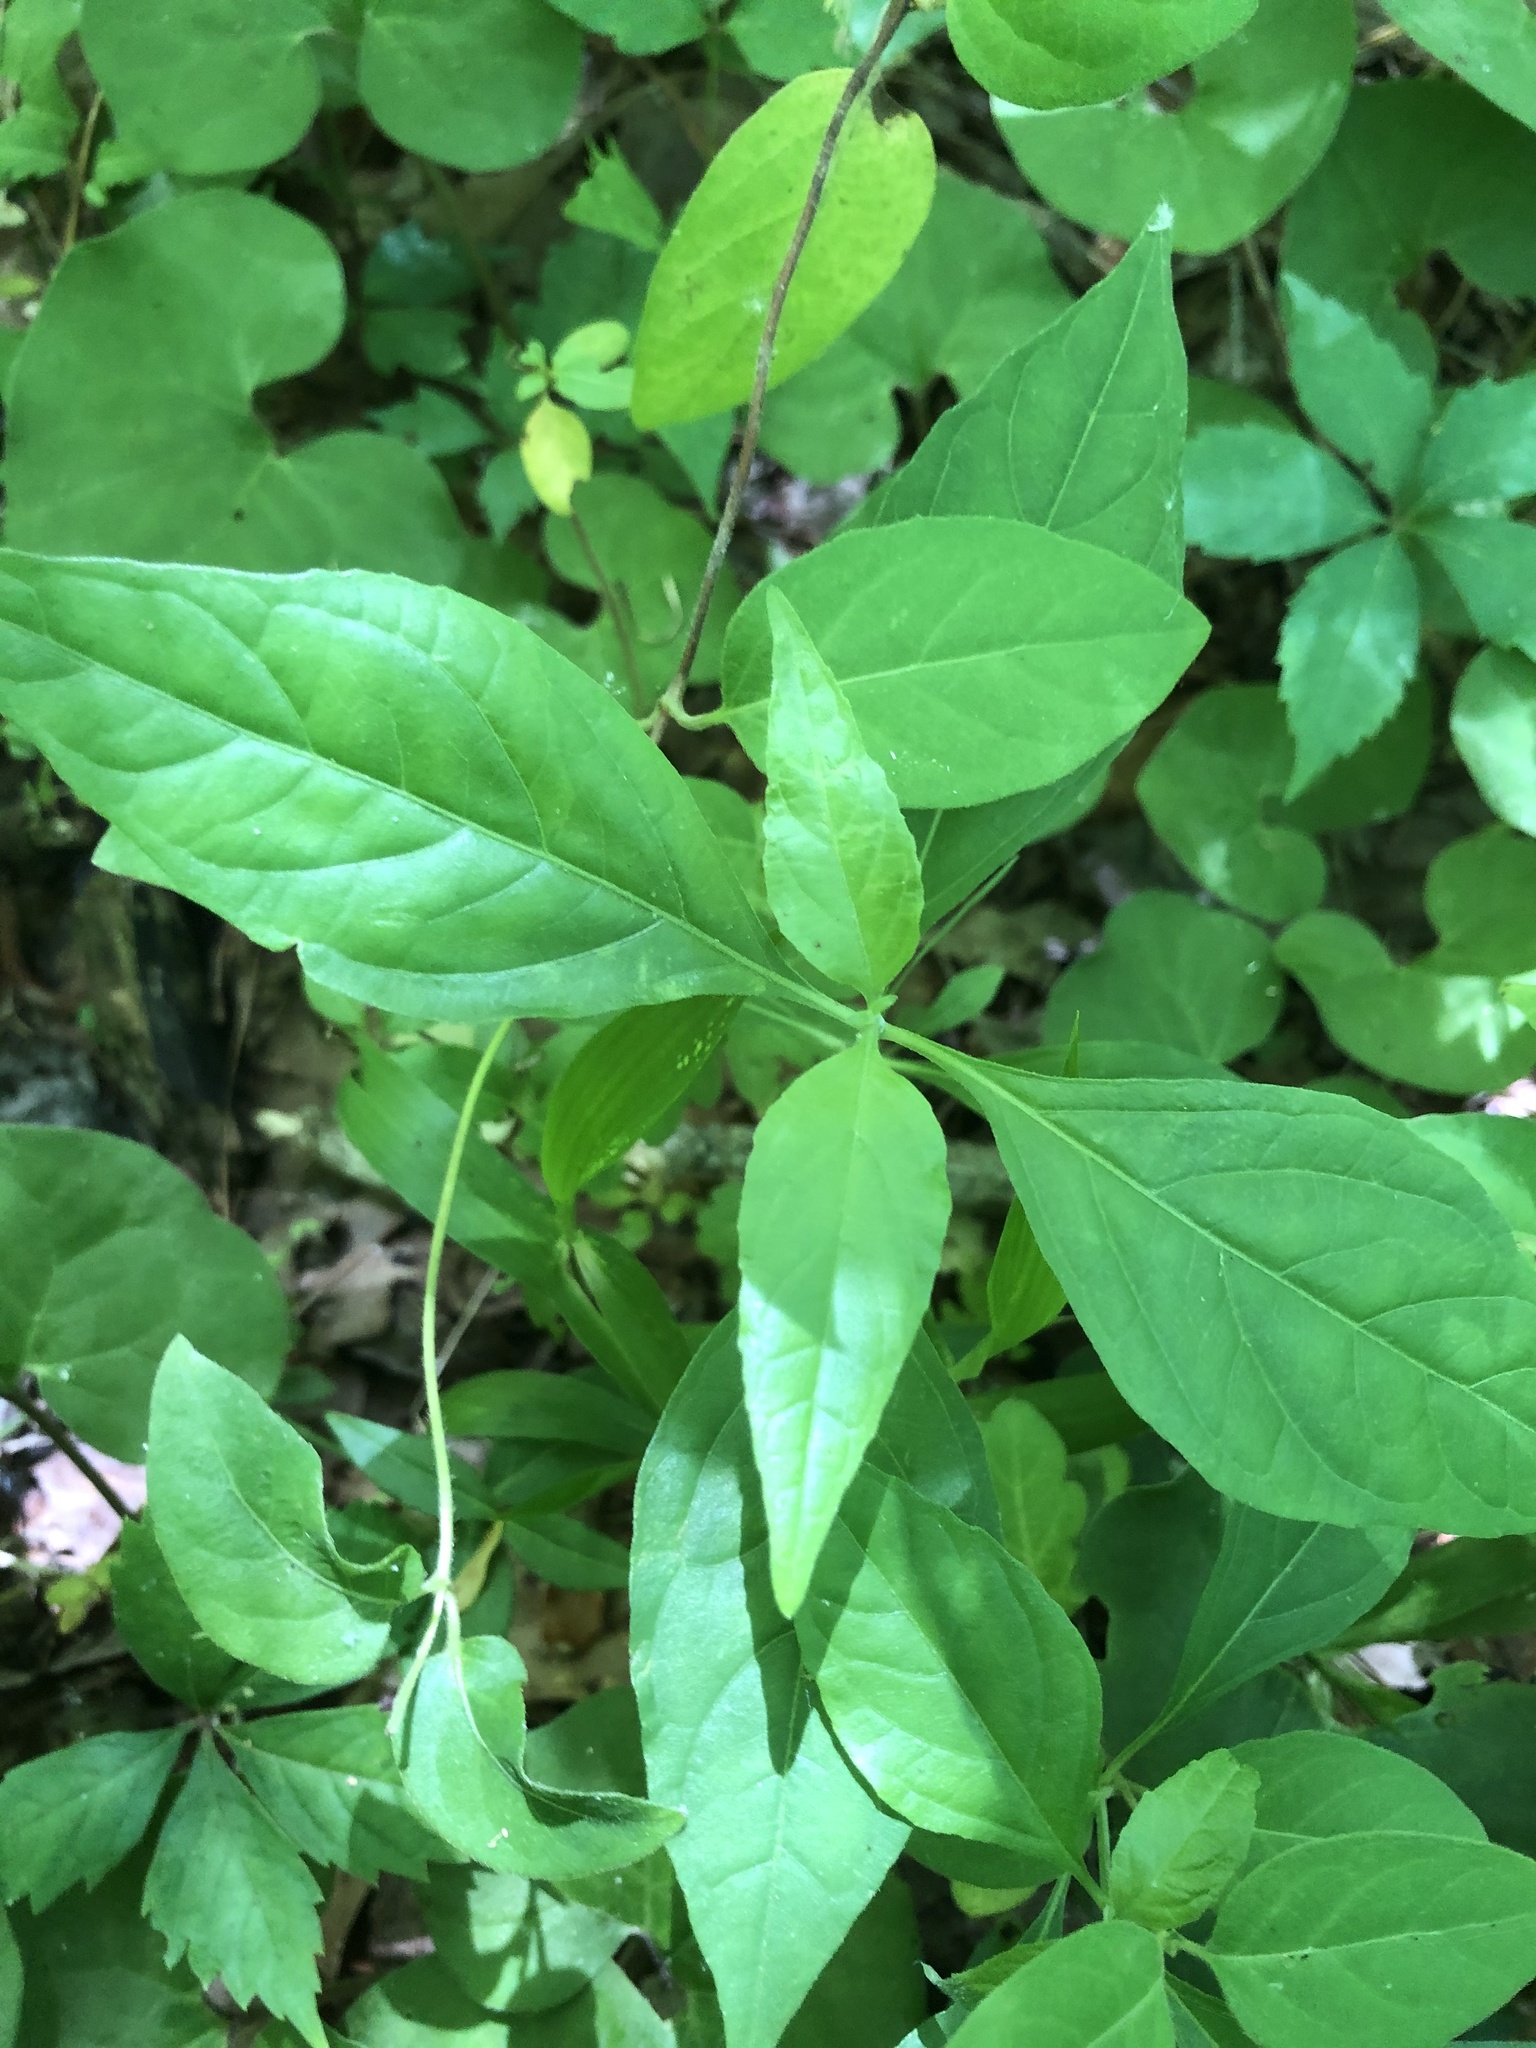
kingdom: Plantae
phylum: Tracheophyta
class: Magnoliopsida
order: Lamiales
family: Acanthaceae
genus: Yeatesia
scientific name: Yeatesia viridiflora
